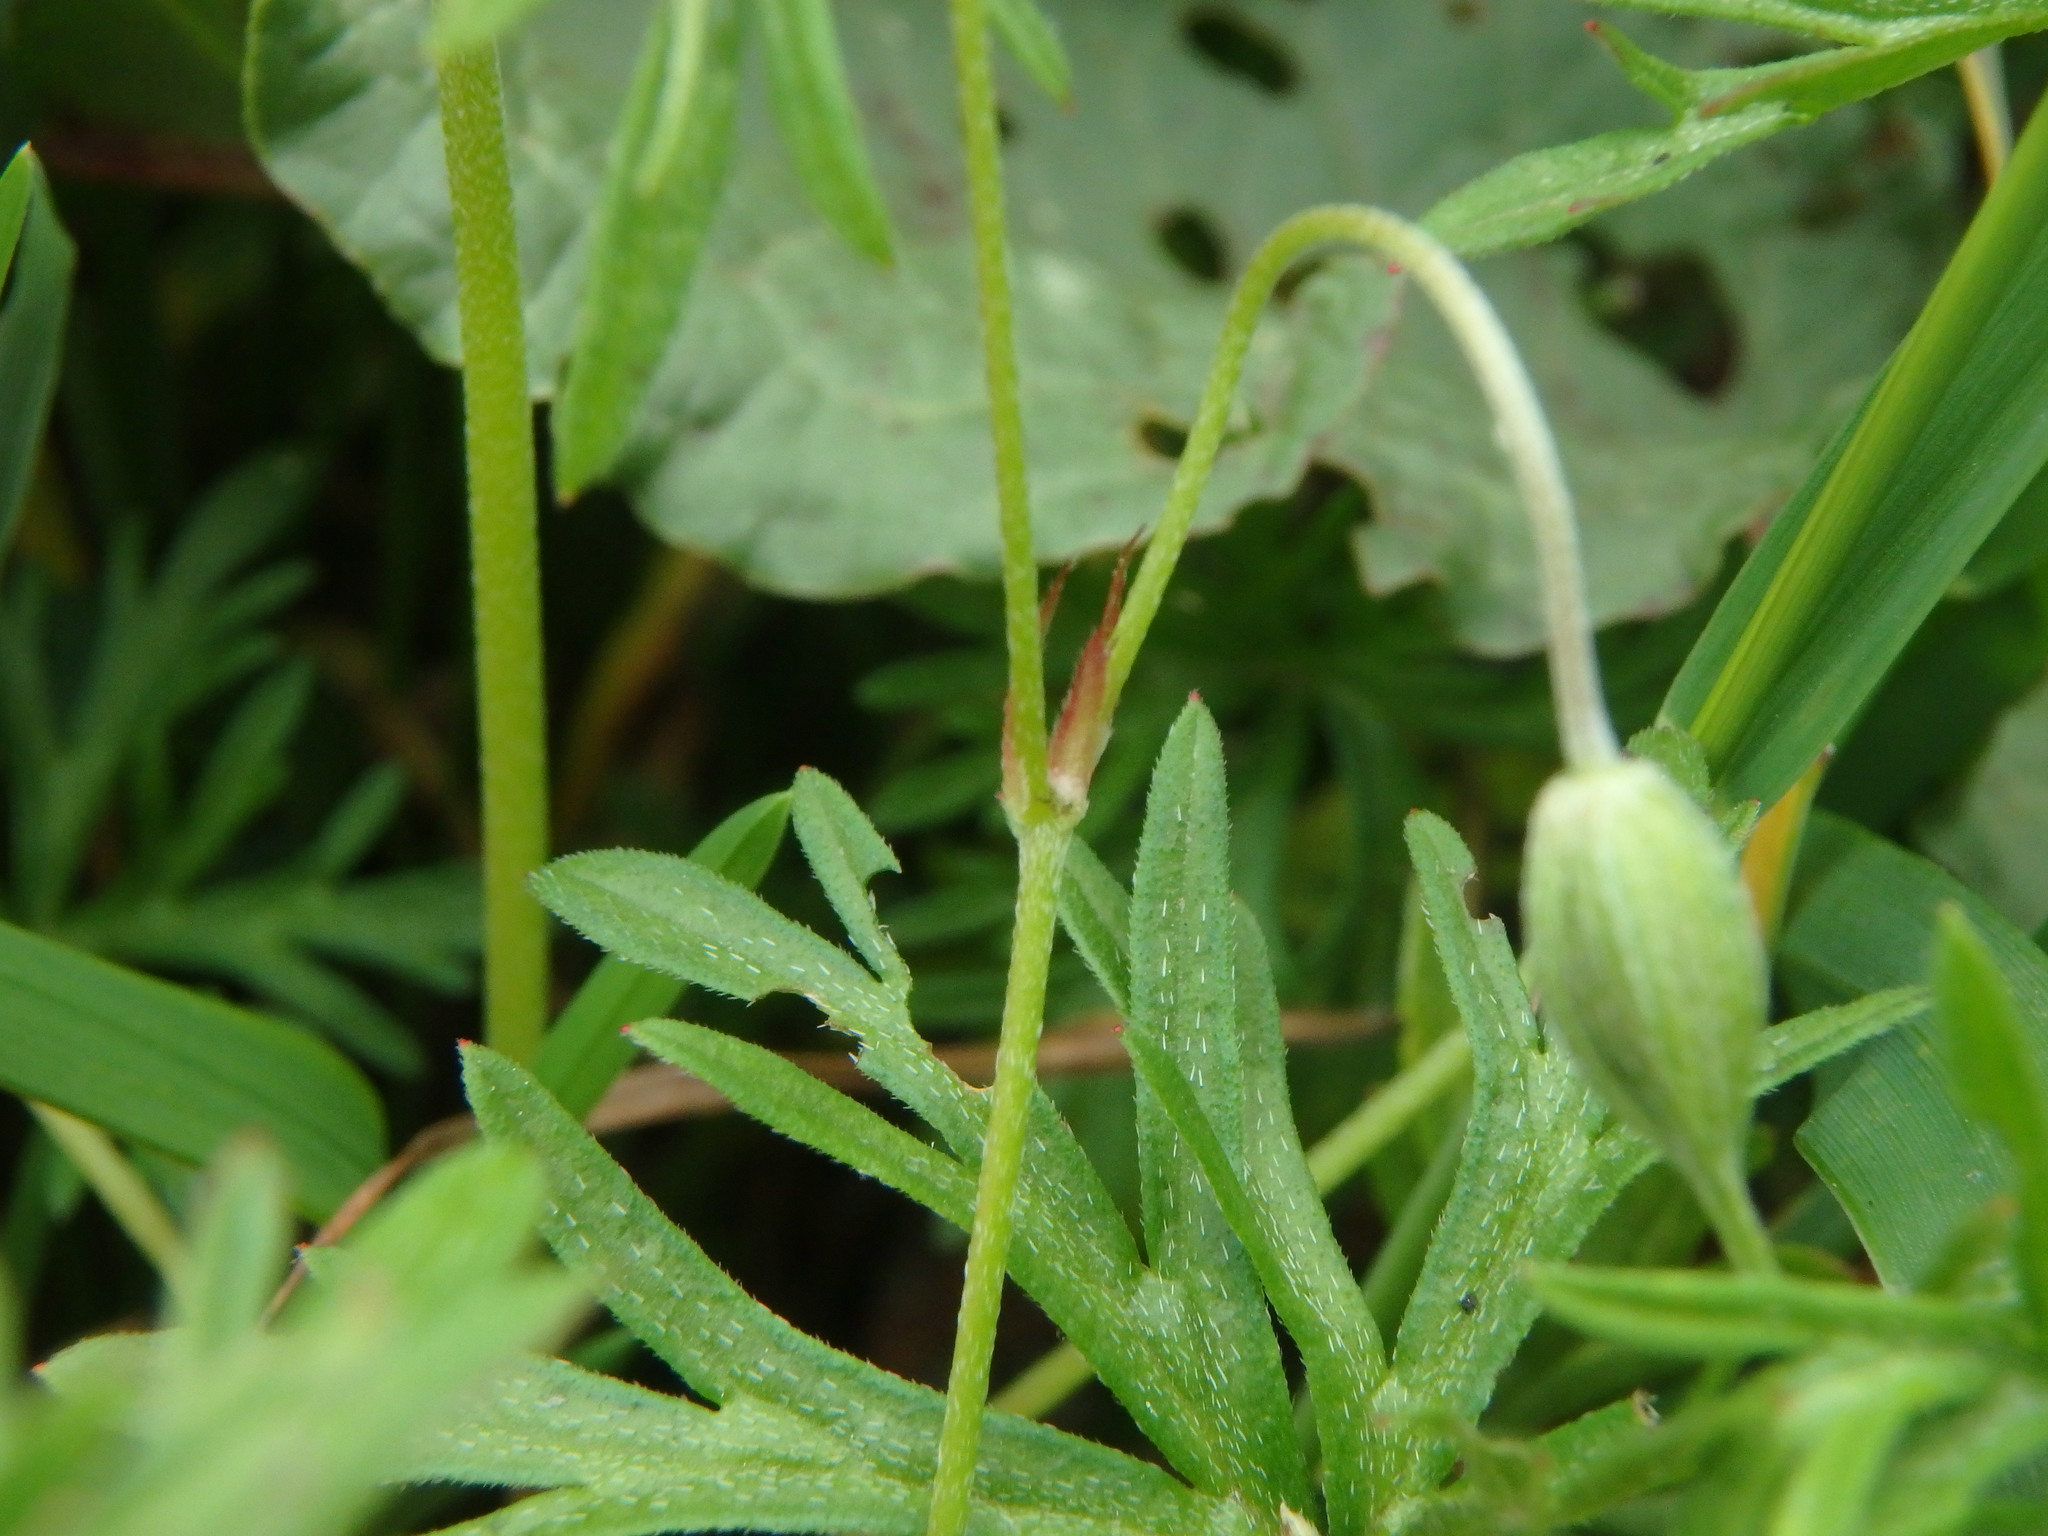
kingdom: Plantae
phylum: Tracheophyta
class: Magnoliopsida
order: Geraniales
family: Geraniaceae
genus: Geranium
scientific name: Geranium columbinum
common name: Long-stalked crane's-bill
